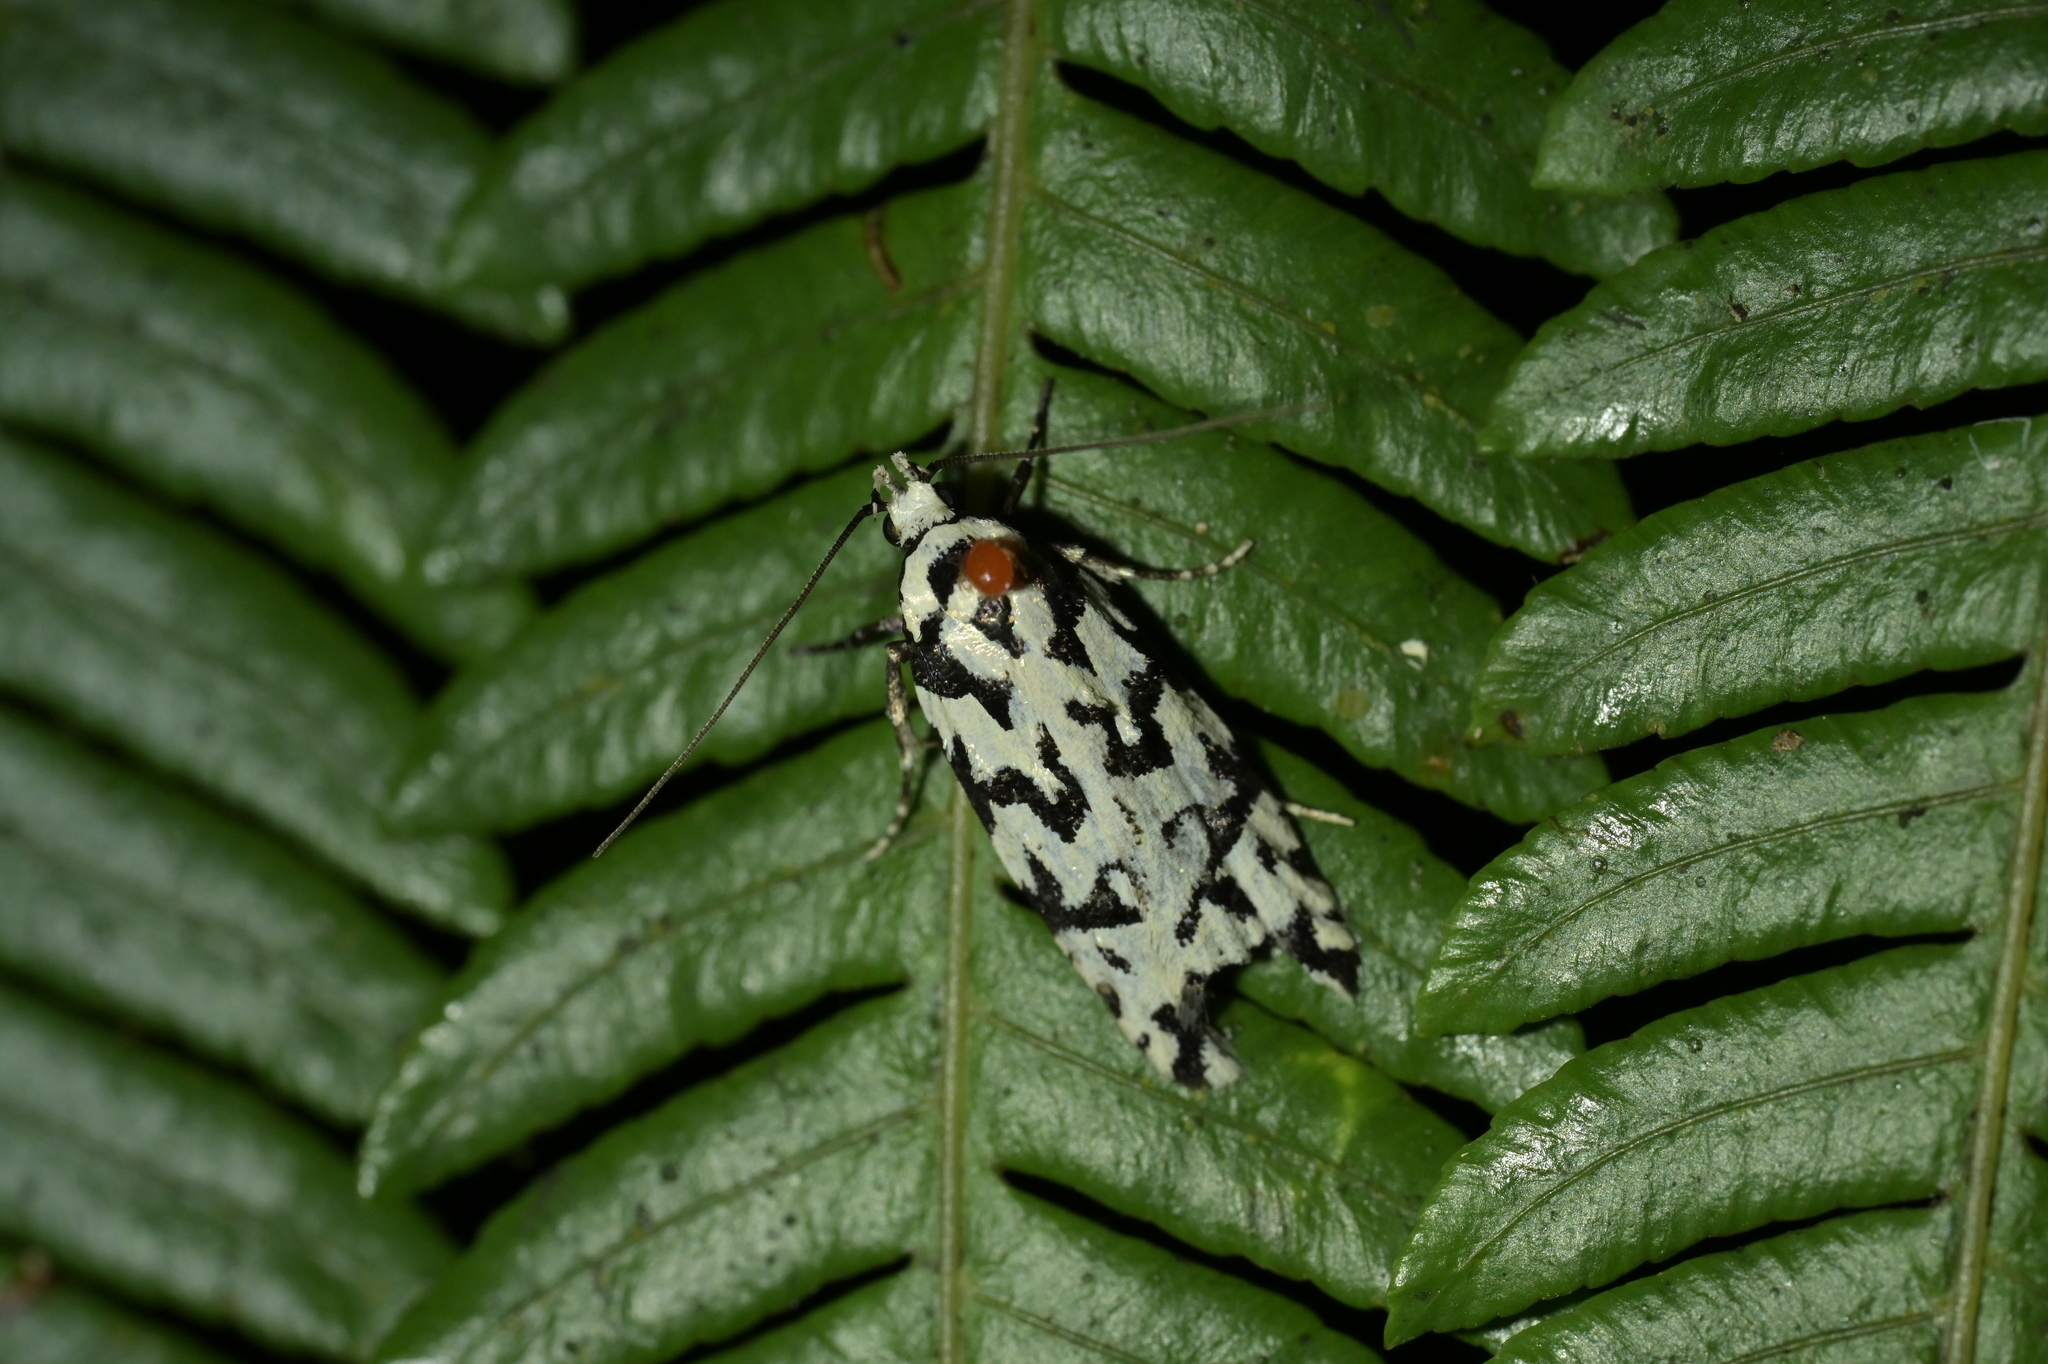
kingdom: Animalia
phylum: Arthropoda
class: Insecta
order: Lepidoptera
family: Oecophoridae
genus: Izatha
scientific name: Izatha
